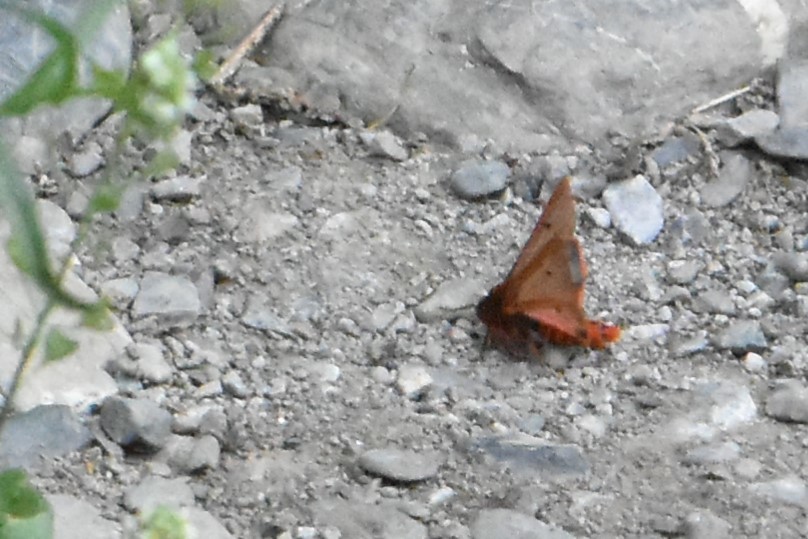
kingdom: Animalia
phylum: Arthropoda
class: Insecta
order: Lepidoptera
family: Erebidae
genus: Phragmatobia
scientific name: Phragmatobia fuliginosa
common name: Ruby tiger
